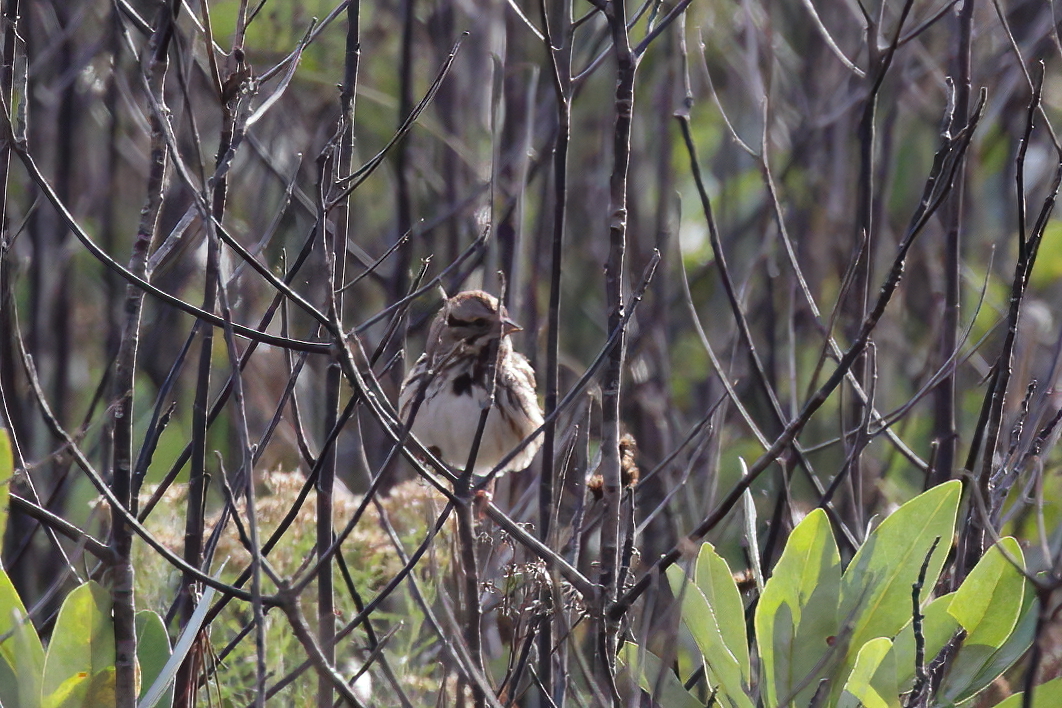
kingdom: Animalia
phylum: Chordata
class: Aves
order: Passeriformes
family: Passerellidae
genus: Melospiza
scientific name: Melospiza melodia
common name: Song sparrow
